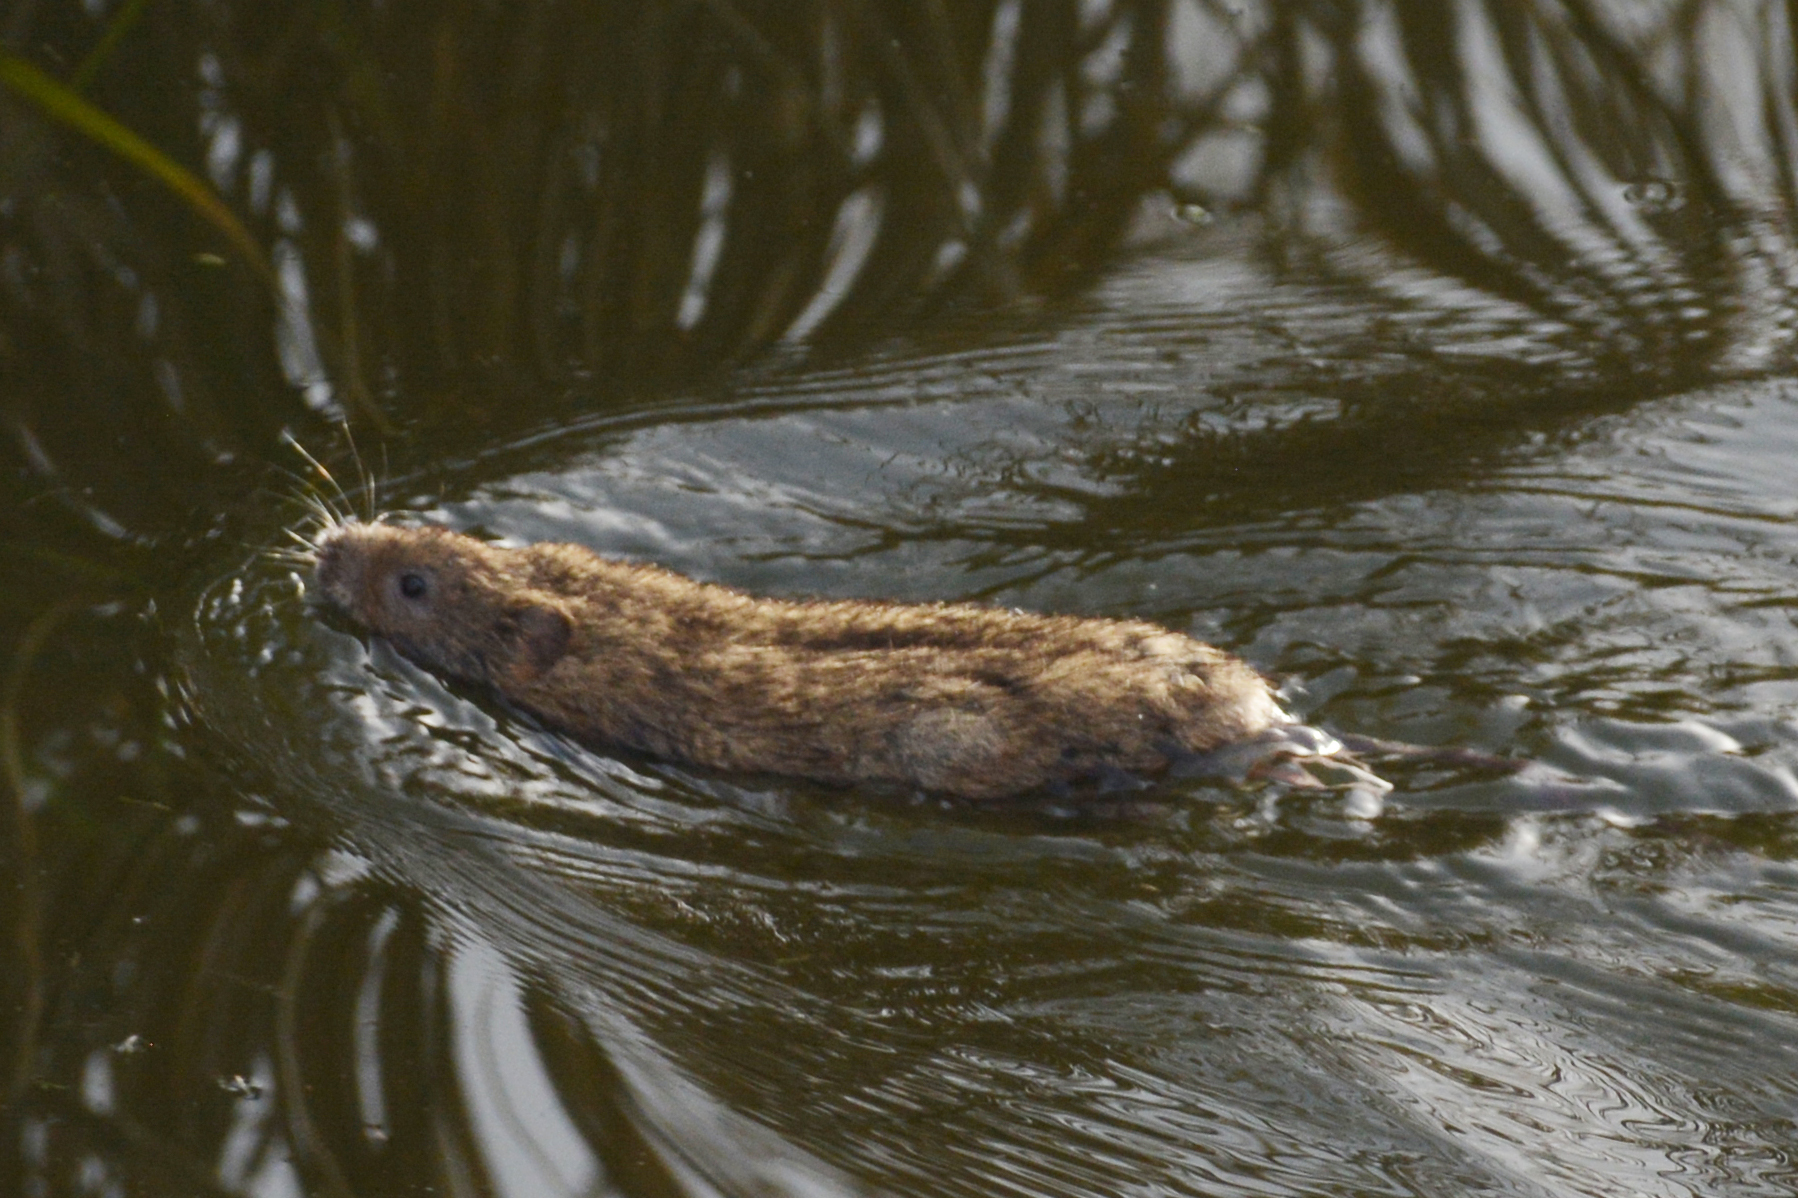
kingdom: Animalia
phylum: Chordata
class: Mammalia
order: Rodentia
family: Cricetidae
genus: Arvicola
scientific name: Arvicola amphibius
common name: European water vole
